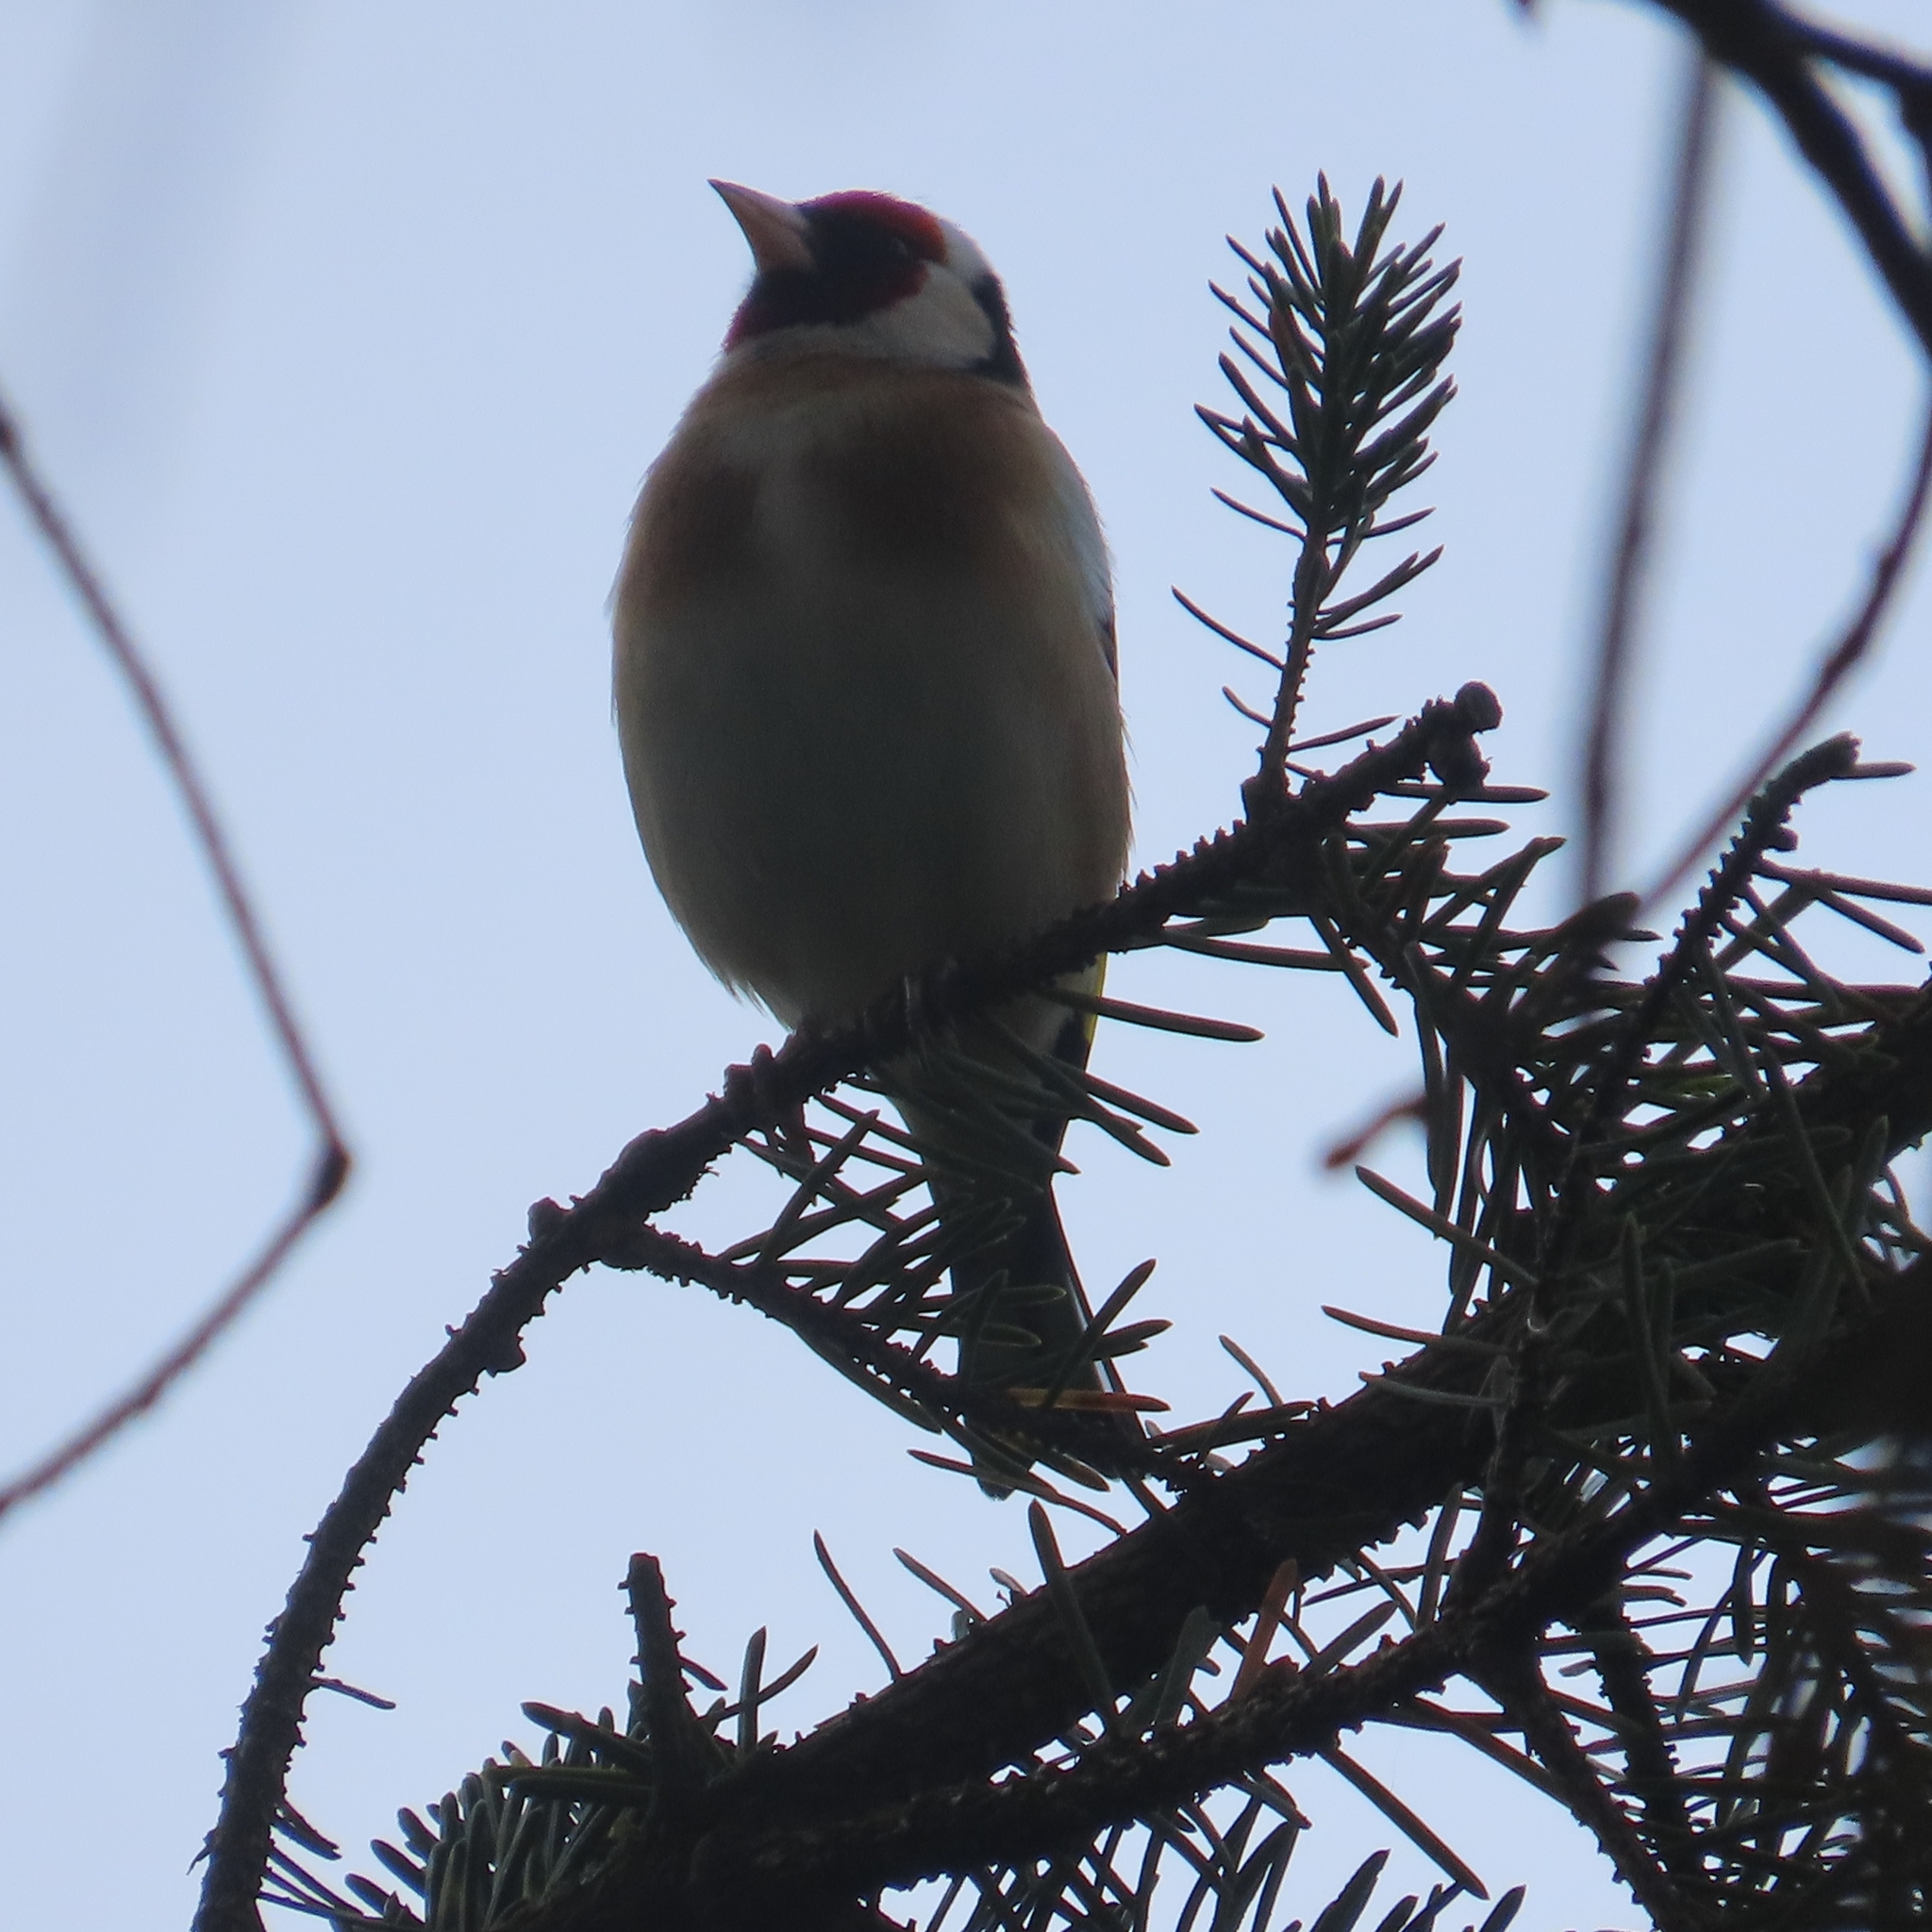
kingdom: Animalia
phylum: Chordata
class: Aves
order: Passeriformes
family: Fringillidae
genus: Carduelis
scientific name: Carduelis carduelis
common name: European goldfinch
